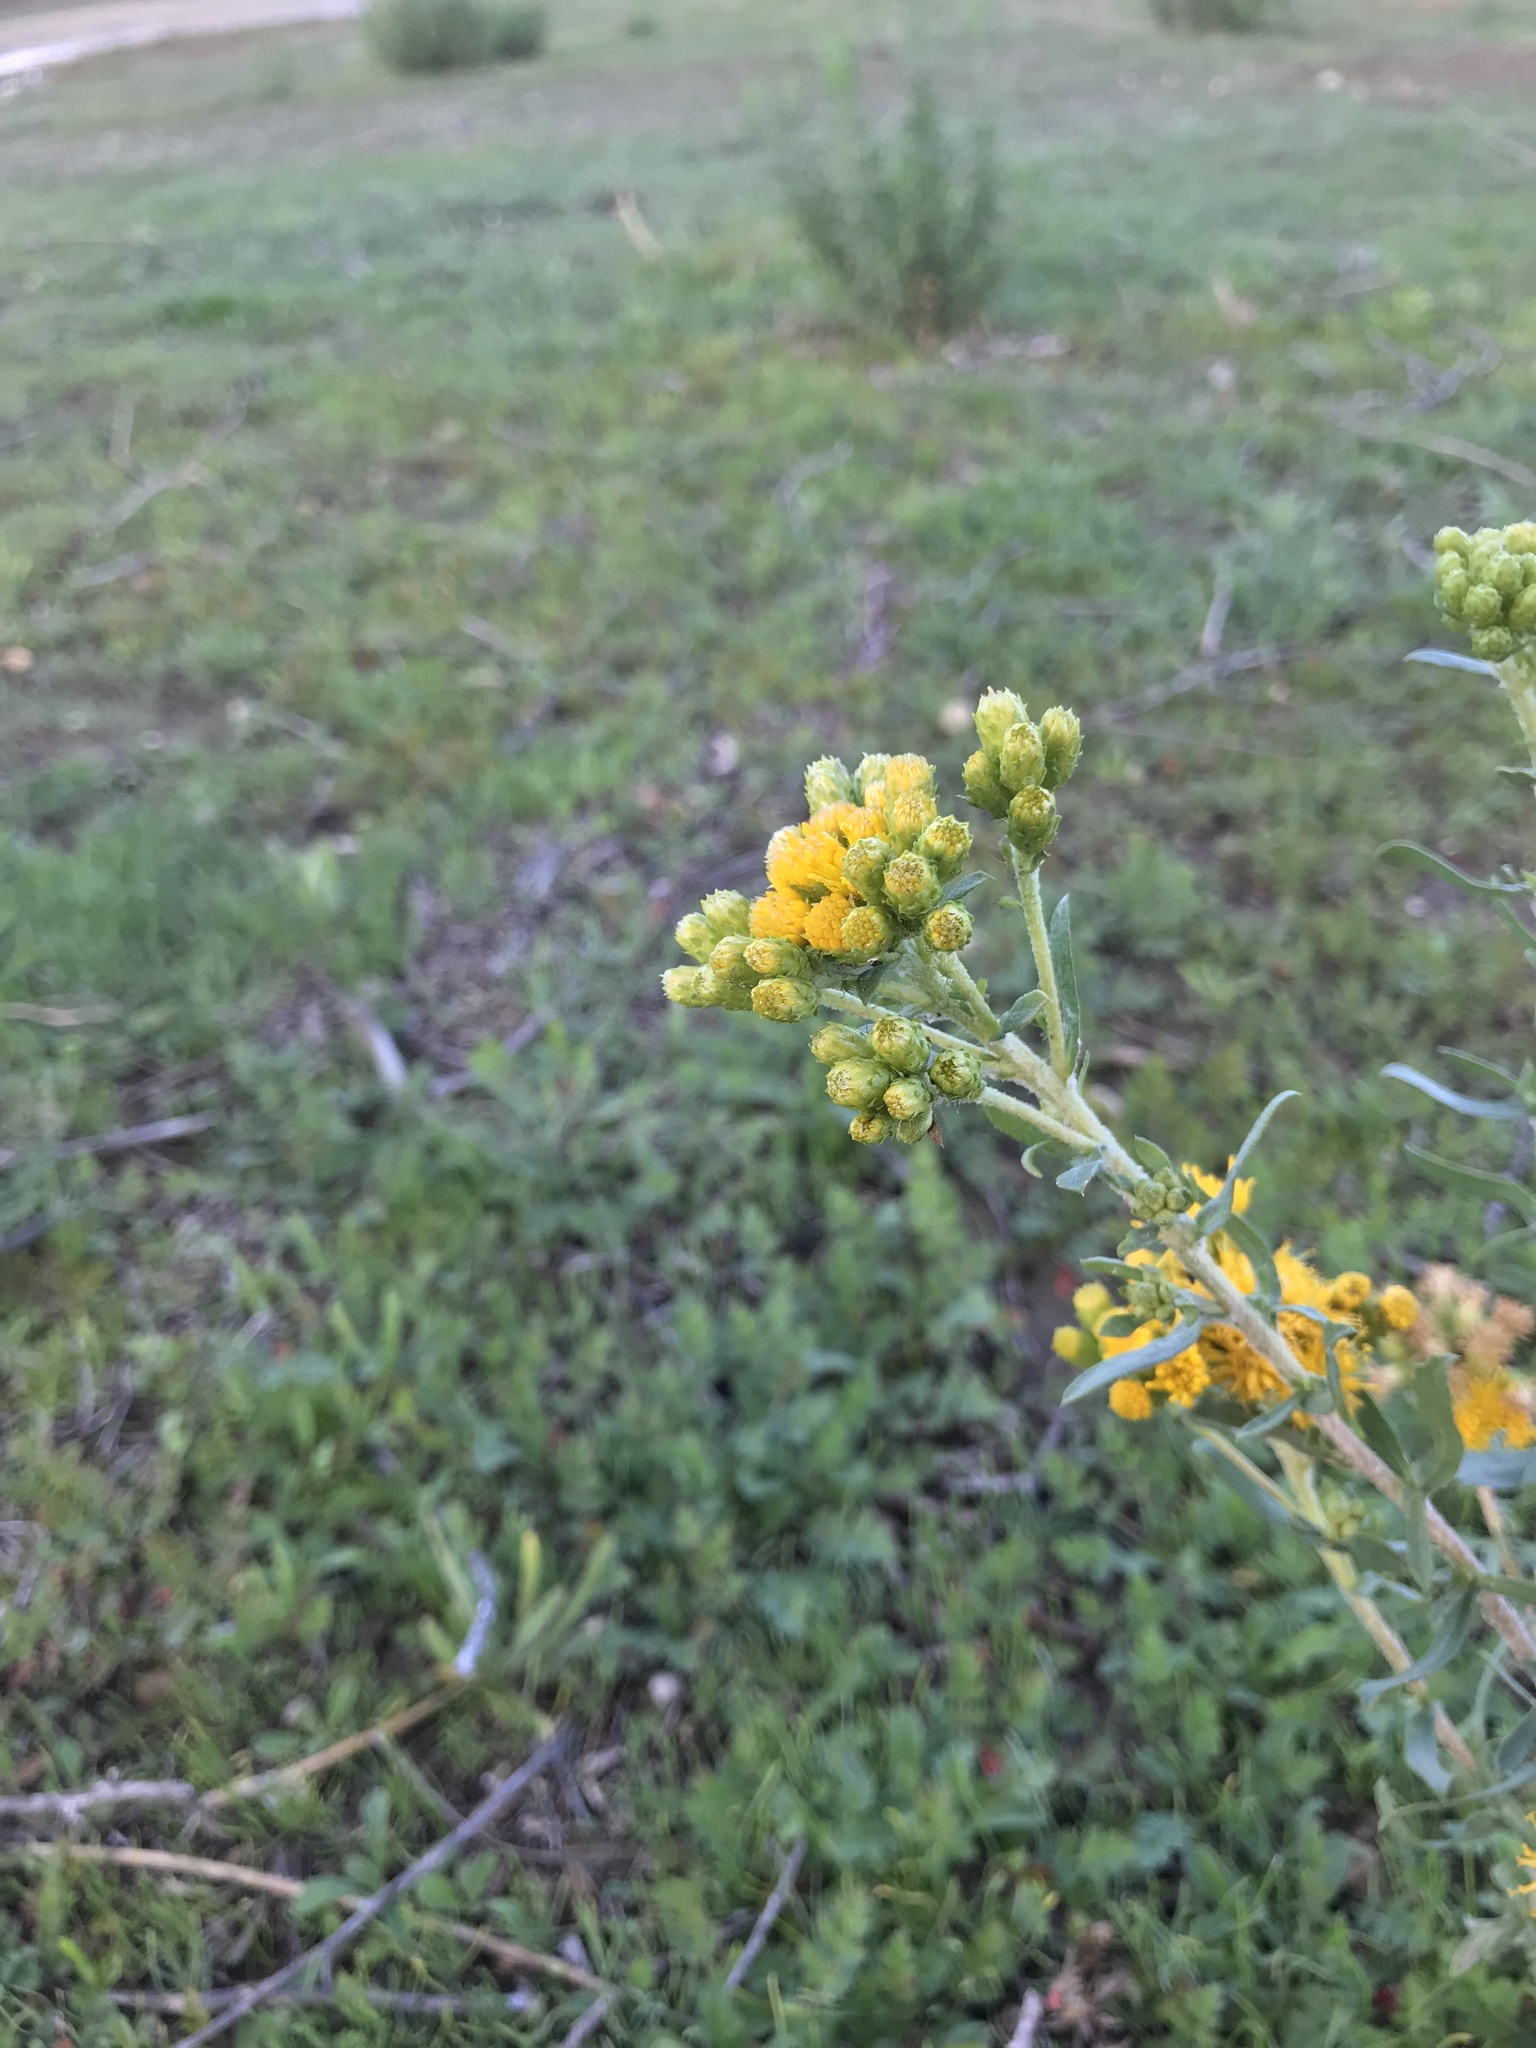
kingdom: Plantae
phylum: Tracheophyta
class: Magnoliopsida
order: Asterales
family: Asteraceae
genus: Isocoma
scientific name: Isocoma menziesii
